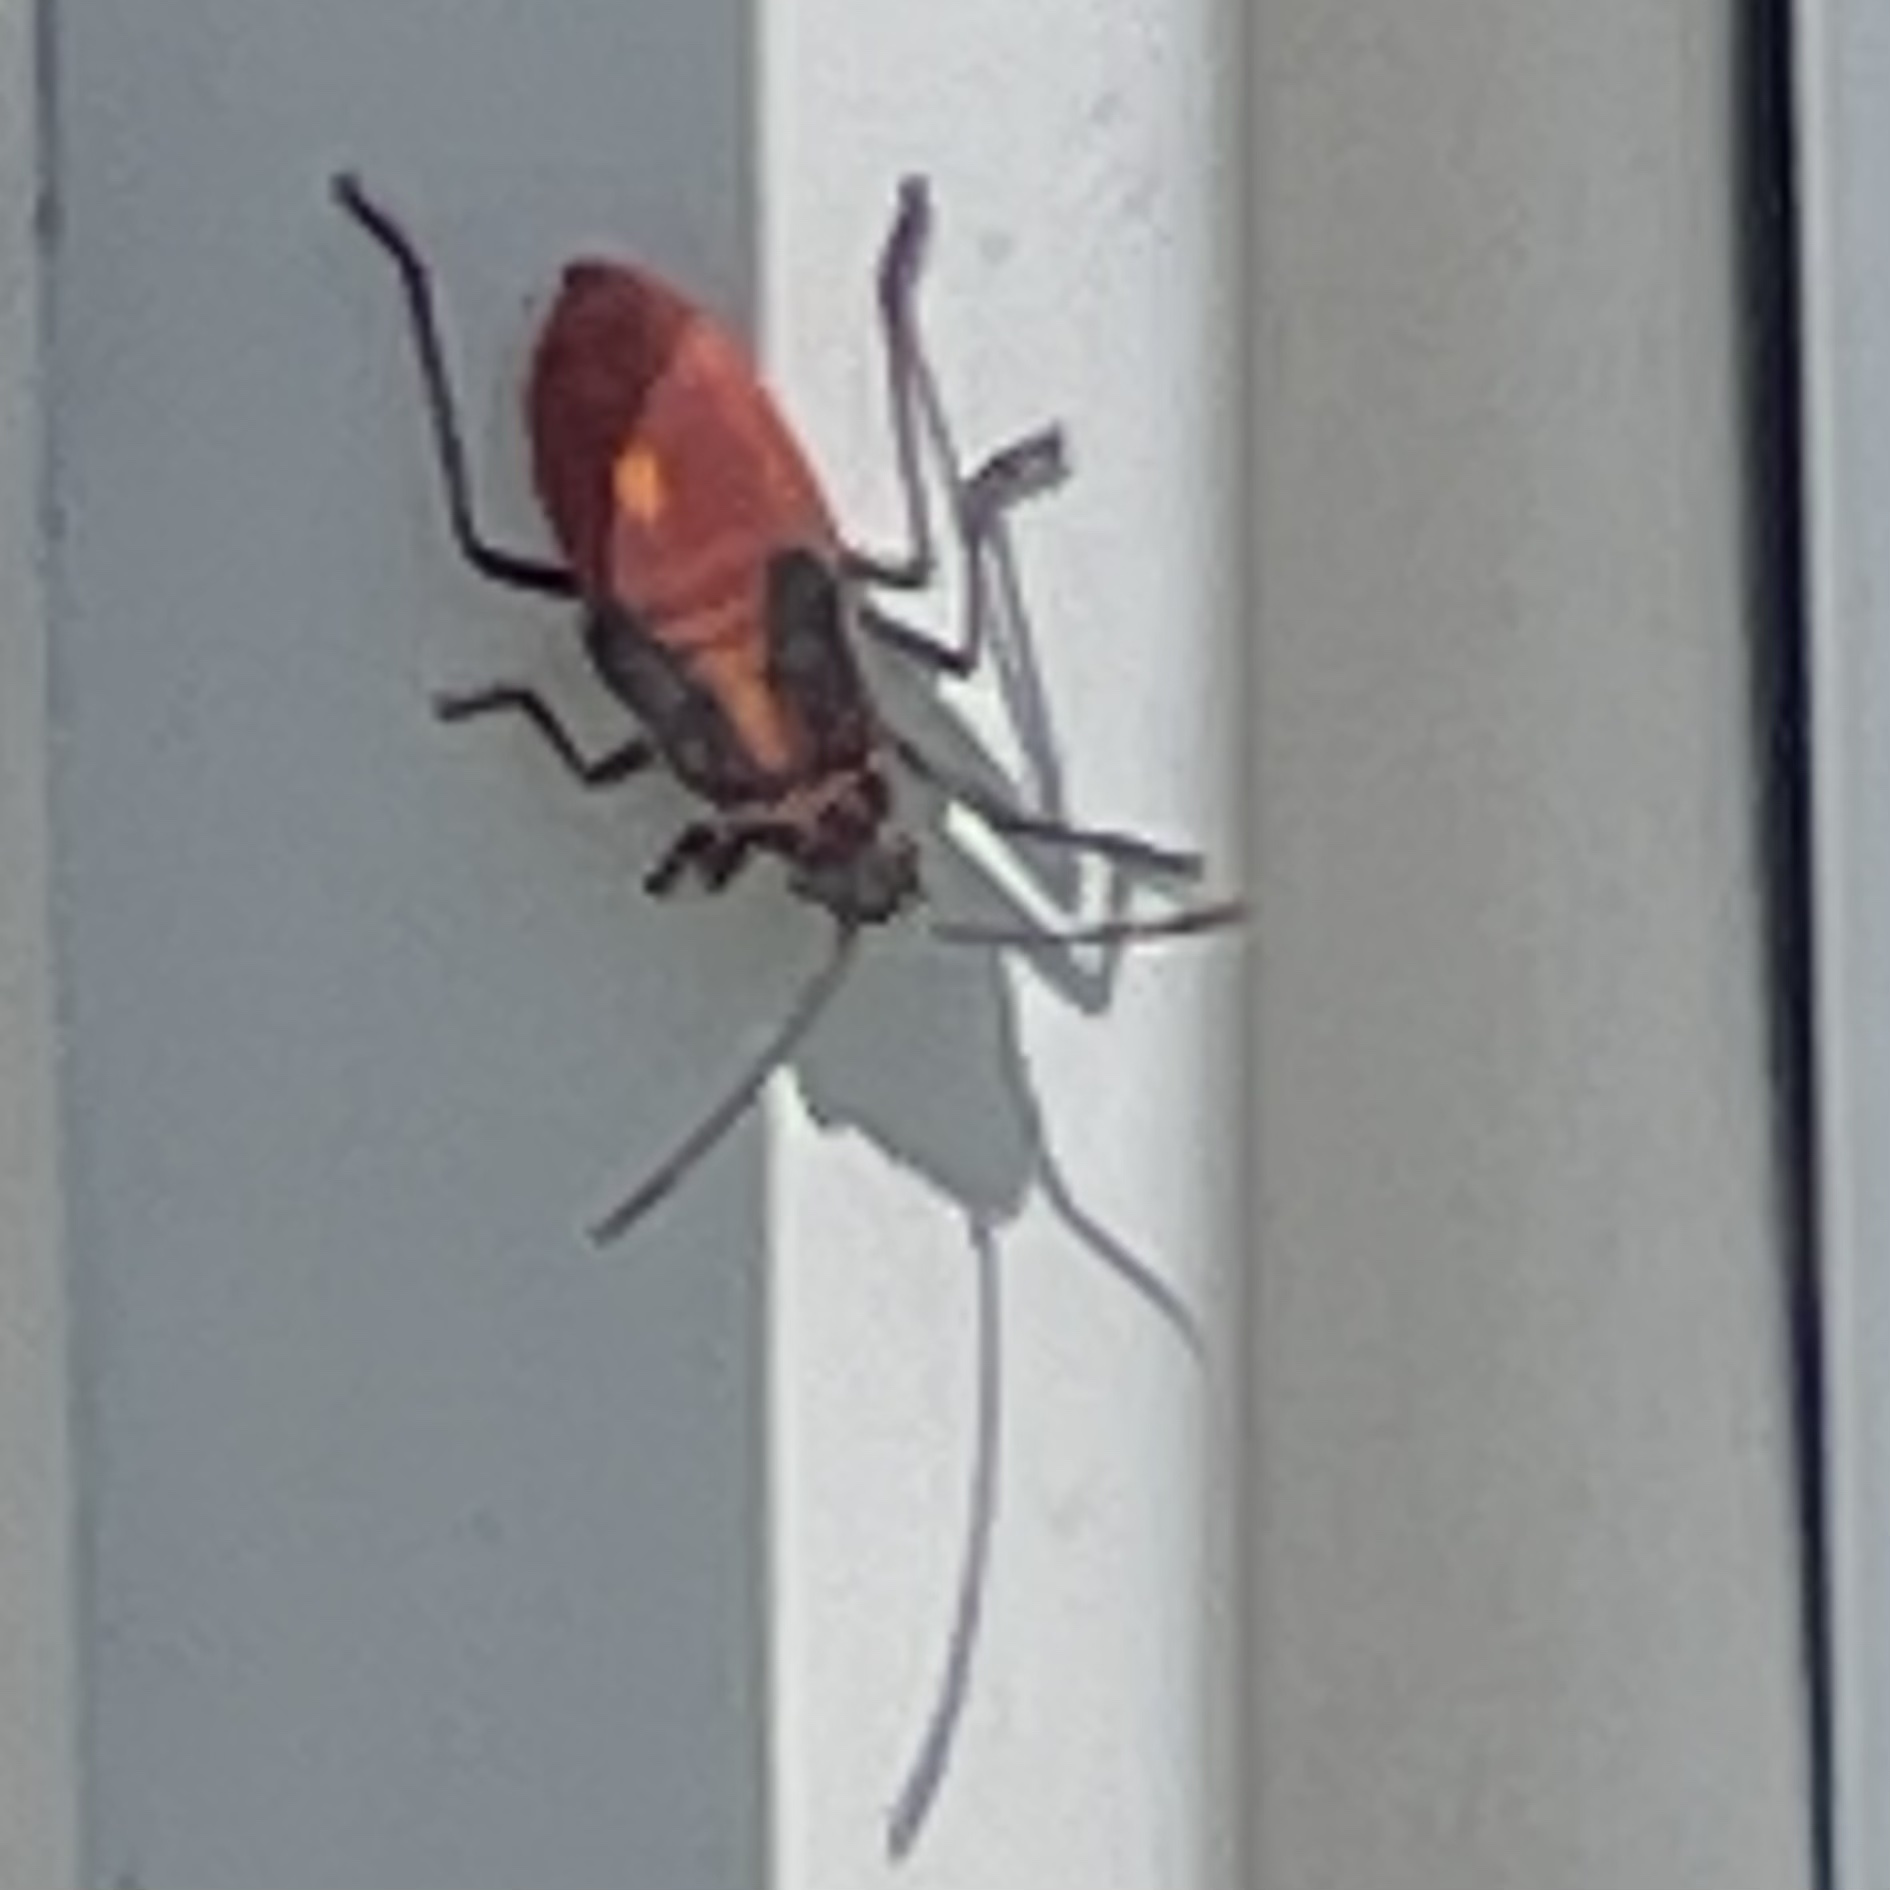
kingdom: Animalia
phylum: Arthropoda
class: Insecta
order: Hemiptera
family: Rhopalidae
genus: Boisea
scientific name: Boisea trivittata
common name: Boxelder bug
